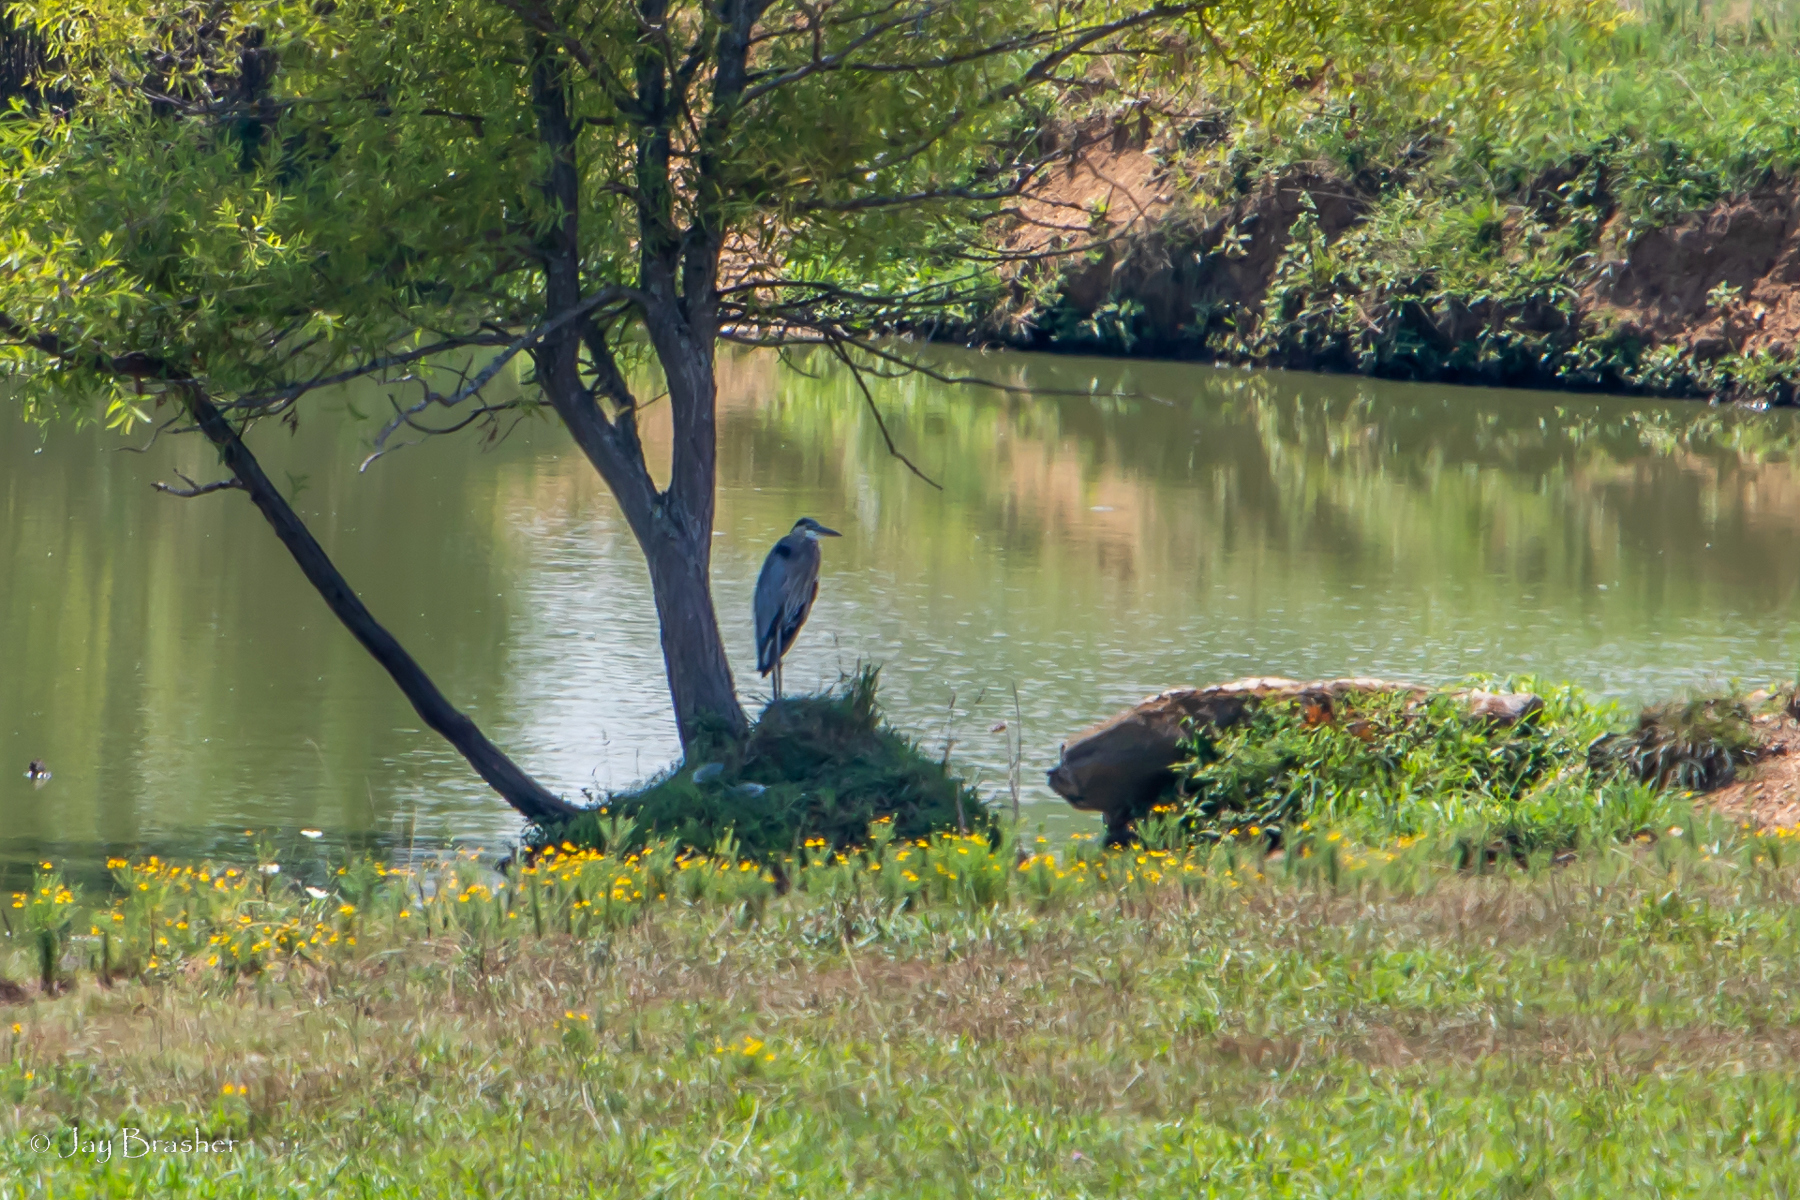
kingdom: Animalia
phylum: Chordata
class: Aves
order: Pelecaniformes
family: Ardeidae
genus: Ardea
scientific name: Ardea herodias
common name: Great blue heron
